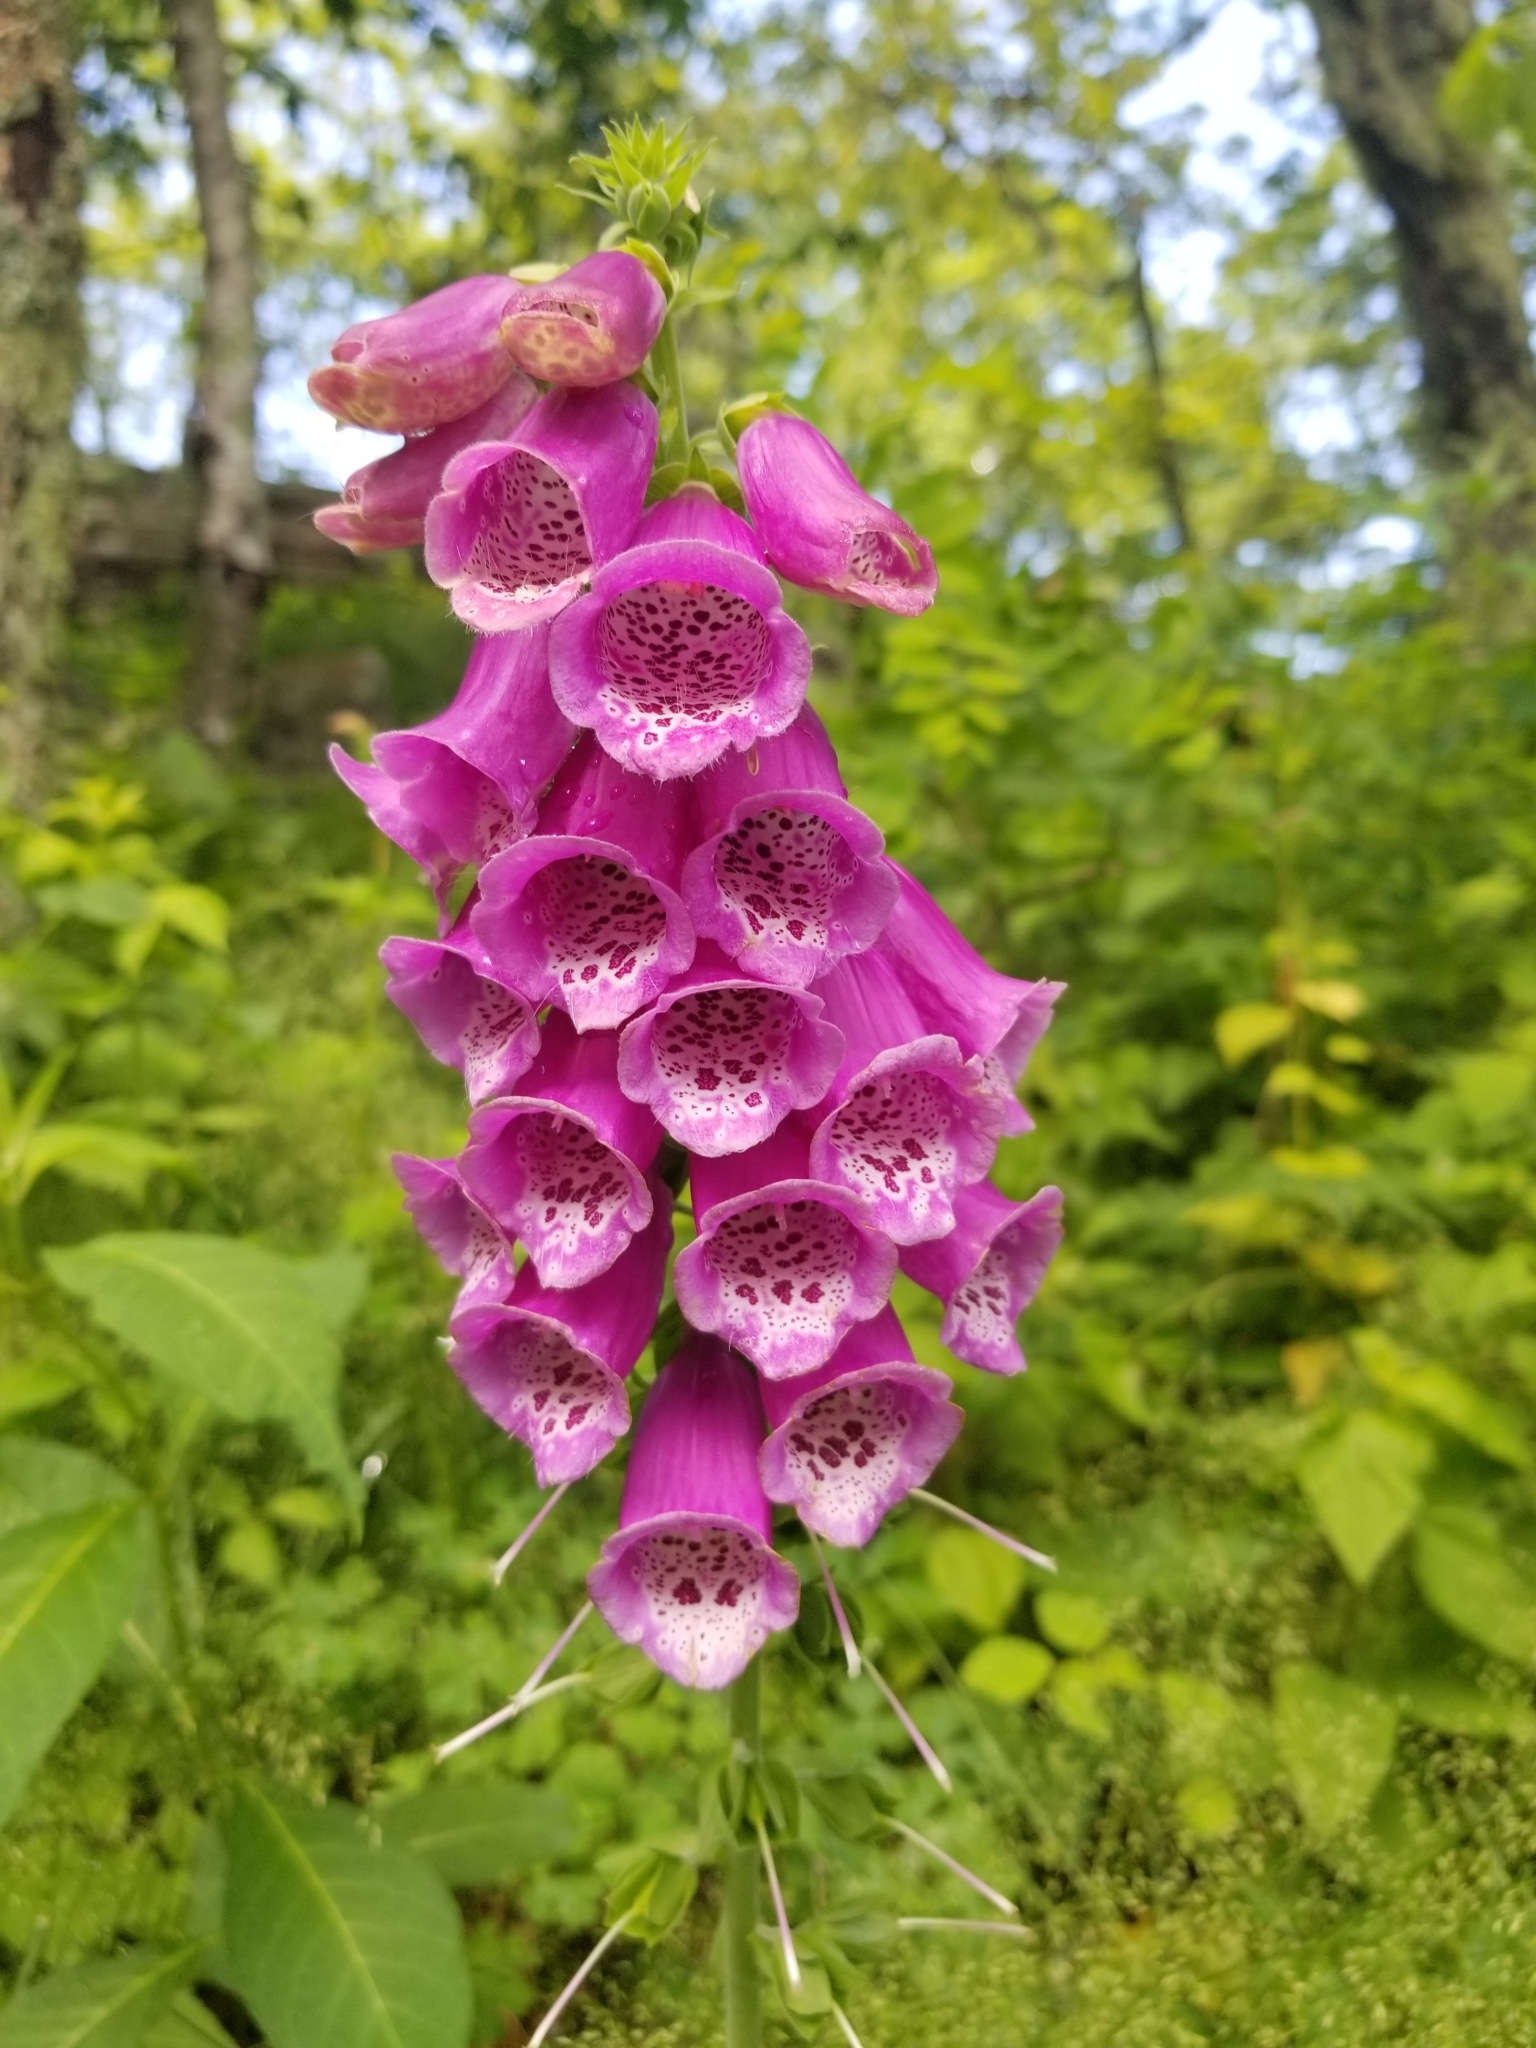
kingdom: Plantae
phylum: Tracheophyta
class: Magnoliopsida
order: Lamiales
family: Plantaginaceae
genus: Digitalis
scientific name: Digitalis purpurea
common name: Foxglove
